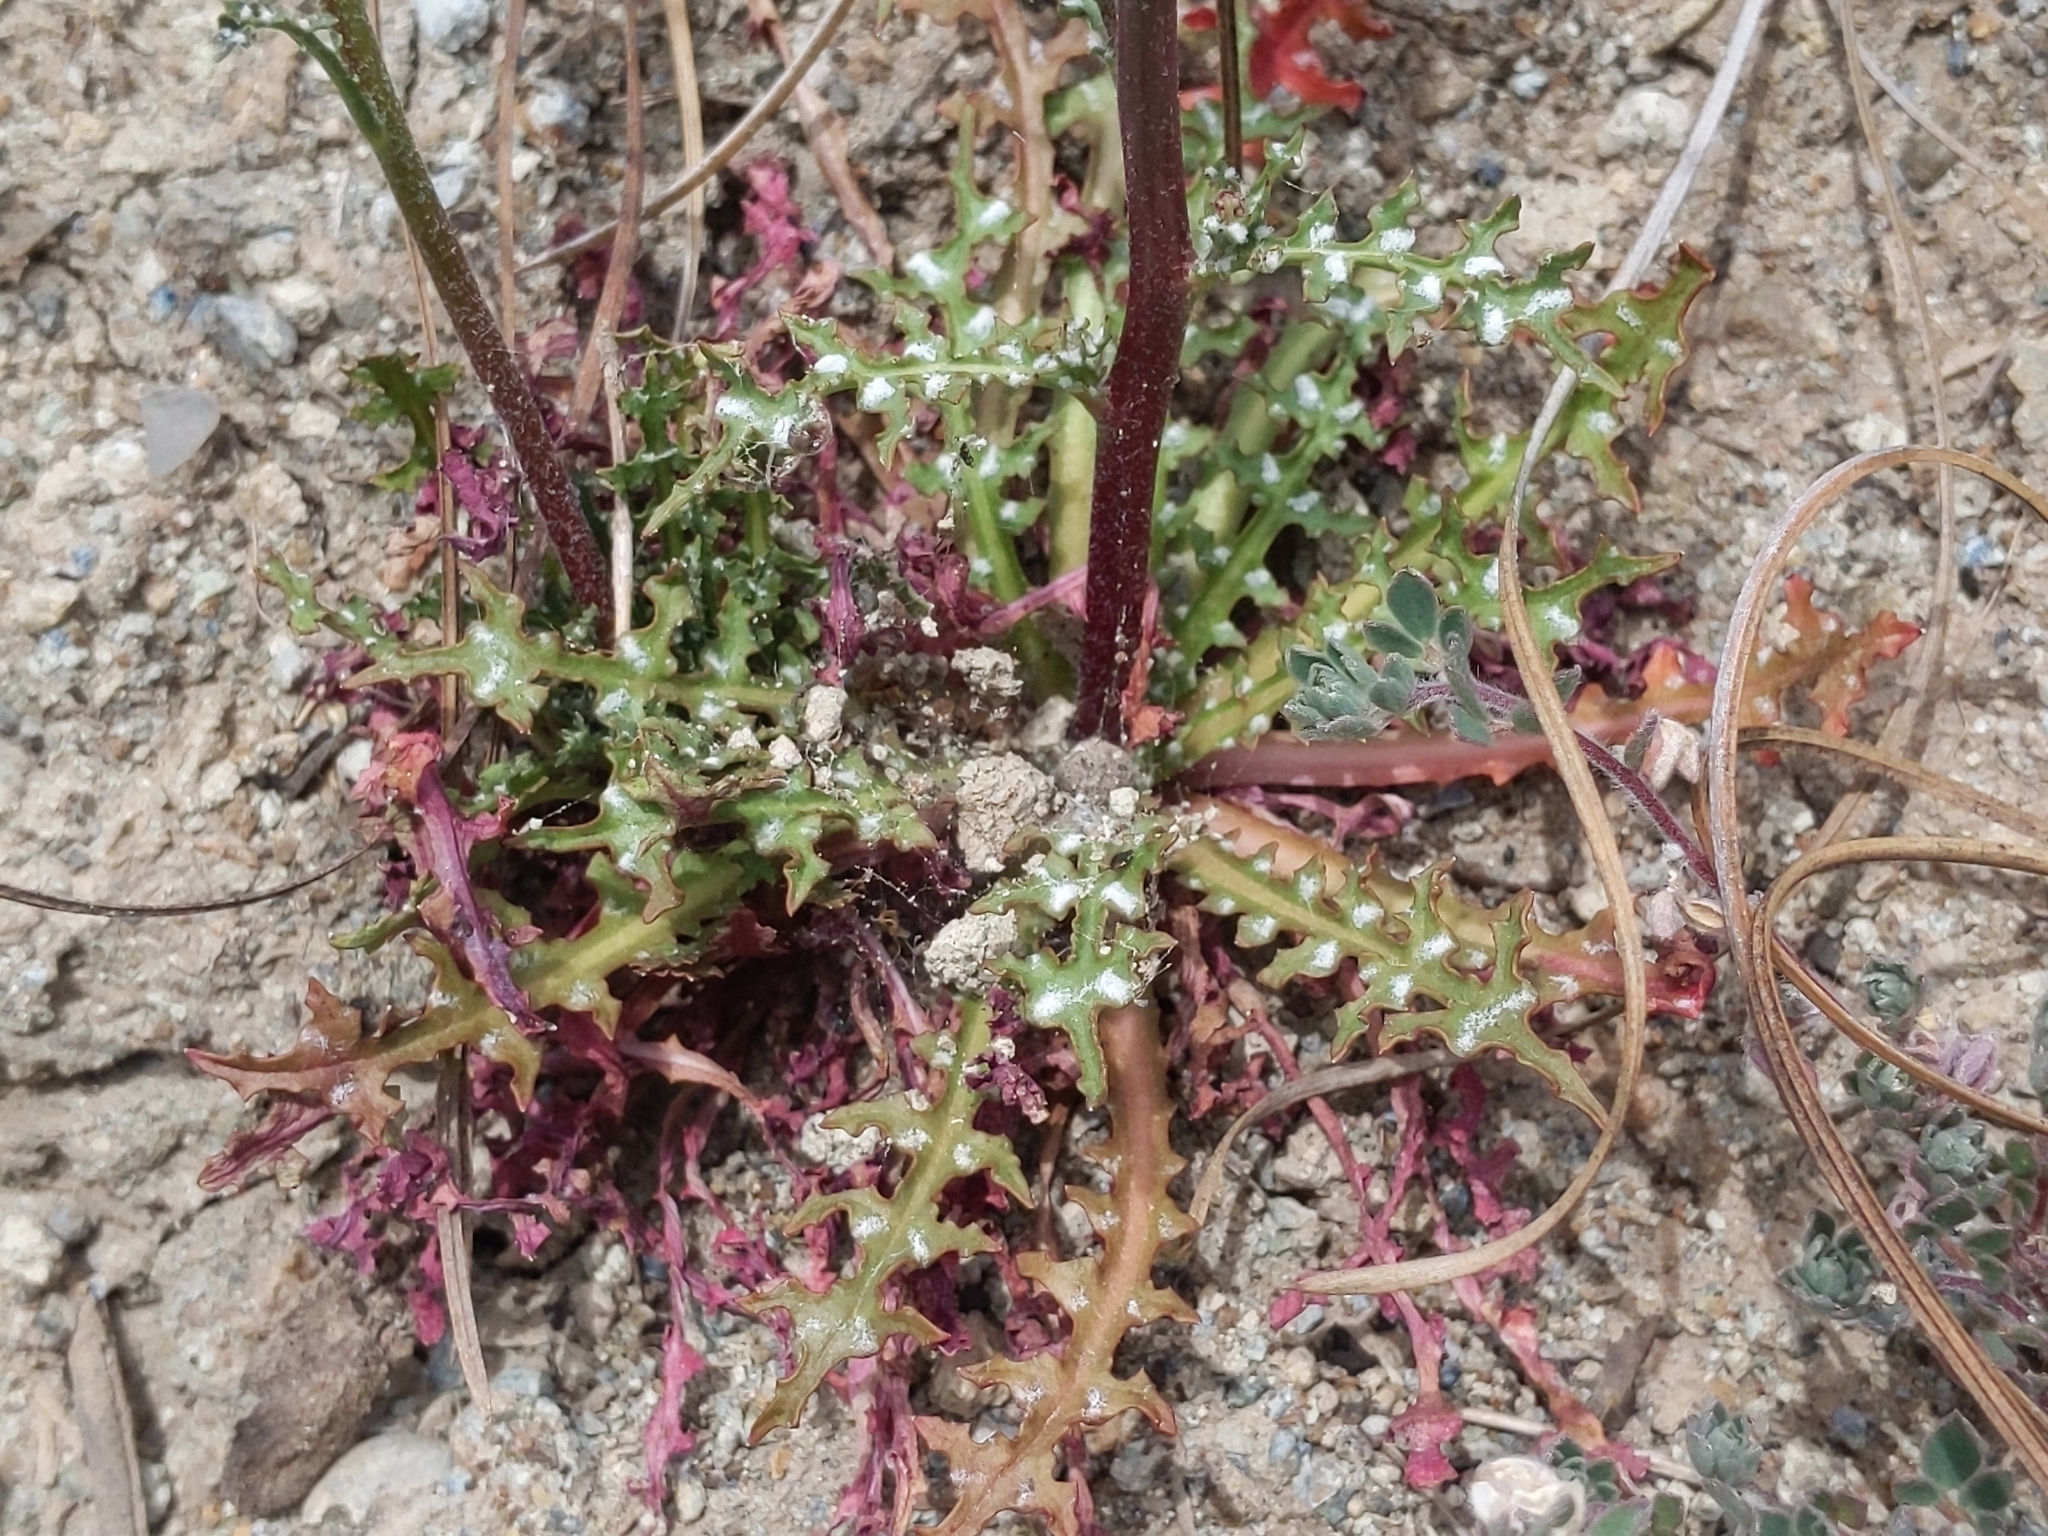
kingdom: Plantae
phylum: Tracheophyta
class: Magnoliopsida
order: Asterales
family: Asteraceae
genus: Malacothrix
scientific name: Malacothrix floccifera
